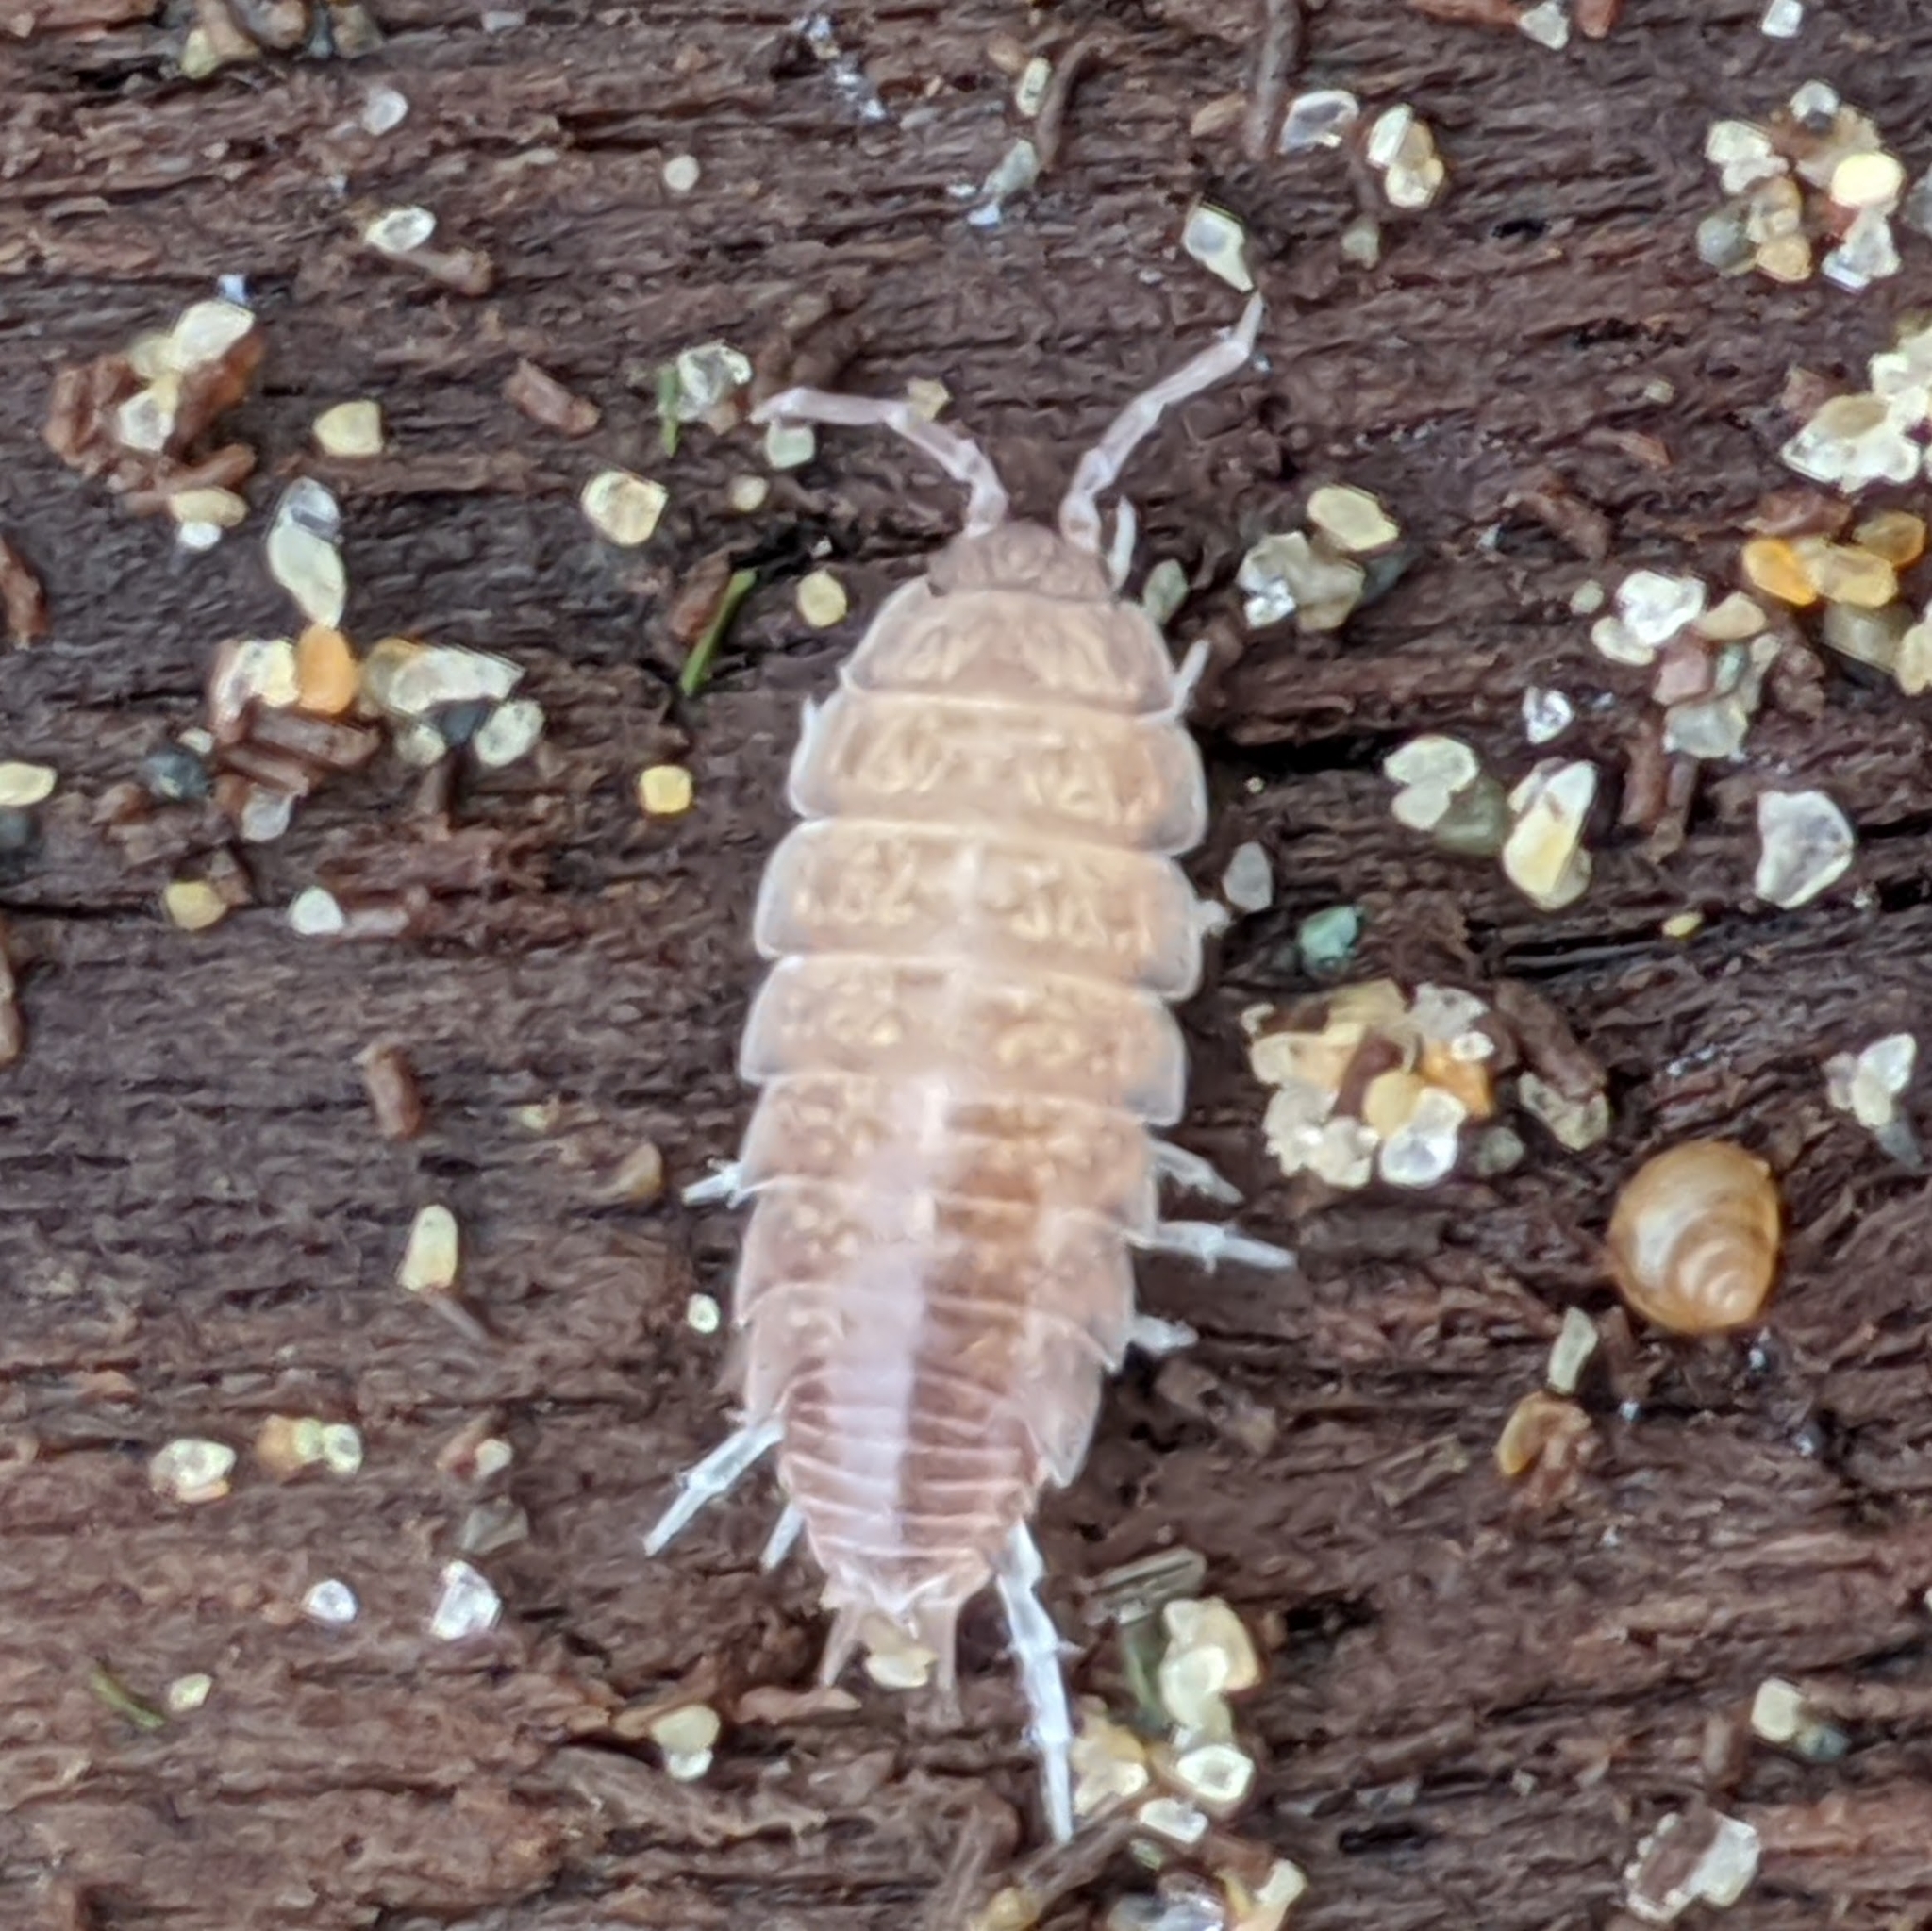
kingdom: Animalia
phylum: Arthropoda
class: Malacostraca
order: Isopoda
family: Platyarthridae
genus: Niambia
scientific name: Niambia capensis
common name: Isopod
